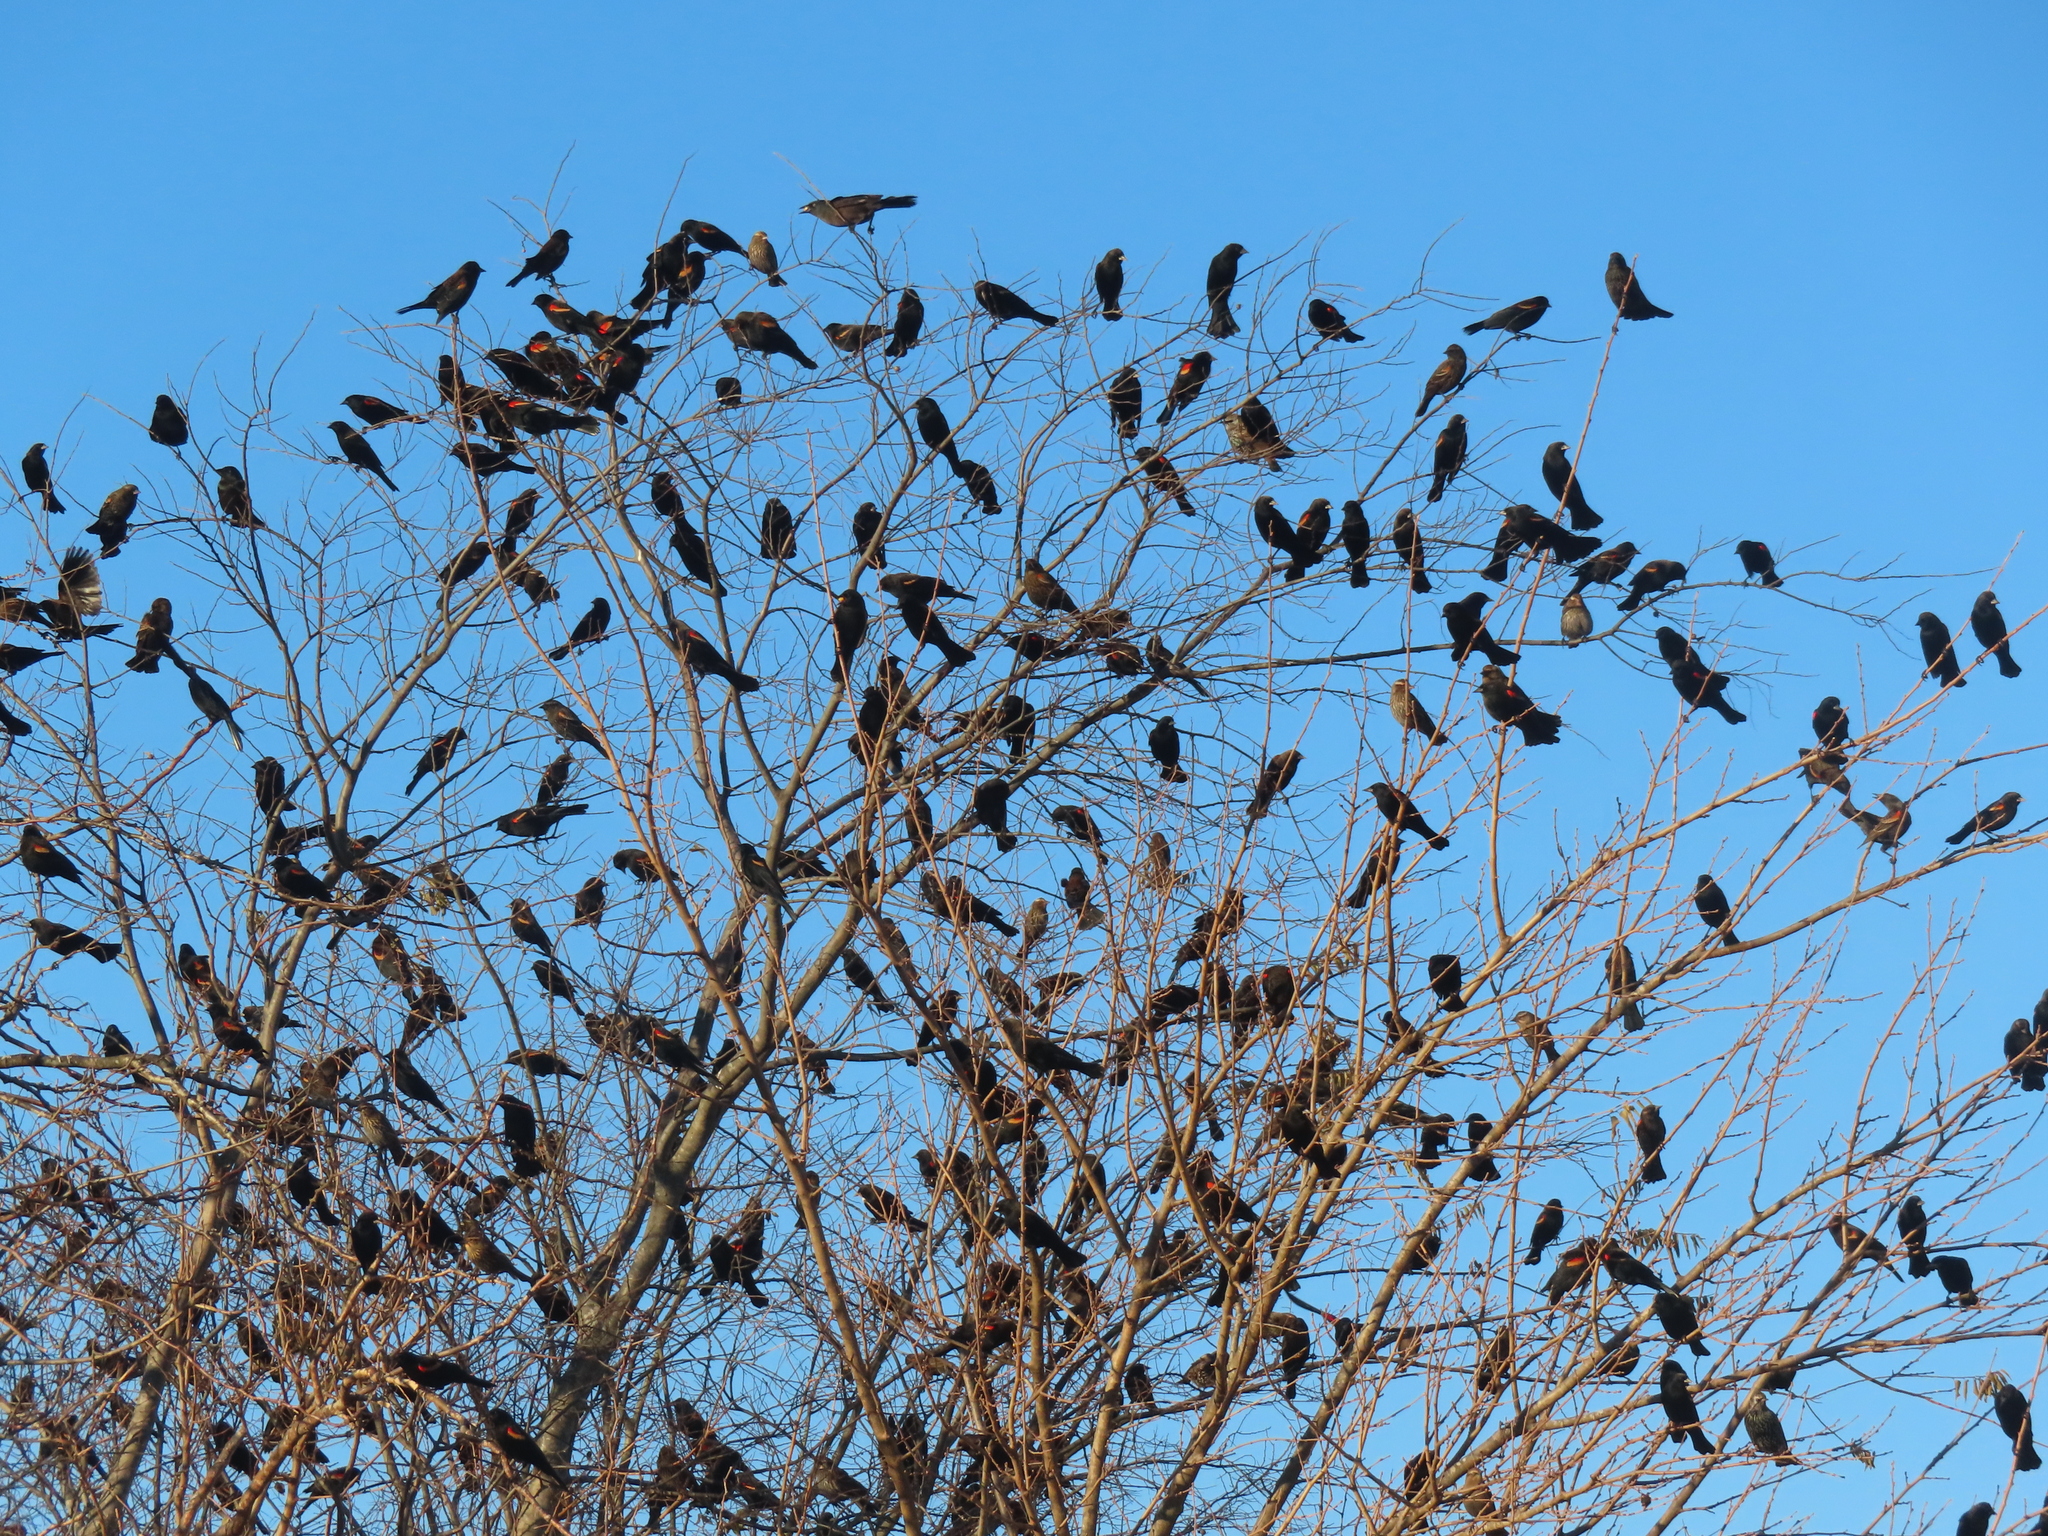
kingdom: Animalia
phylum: Chordata
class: Aves
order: Passeriformes
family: Icteridae
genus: Agelaius
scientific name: Agelaius phoeniceus
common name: Red-winged blackbird
